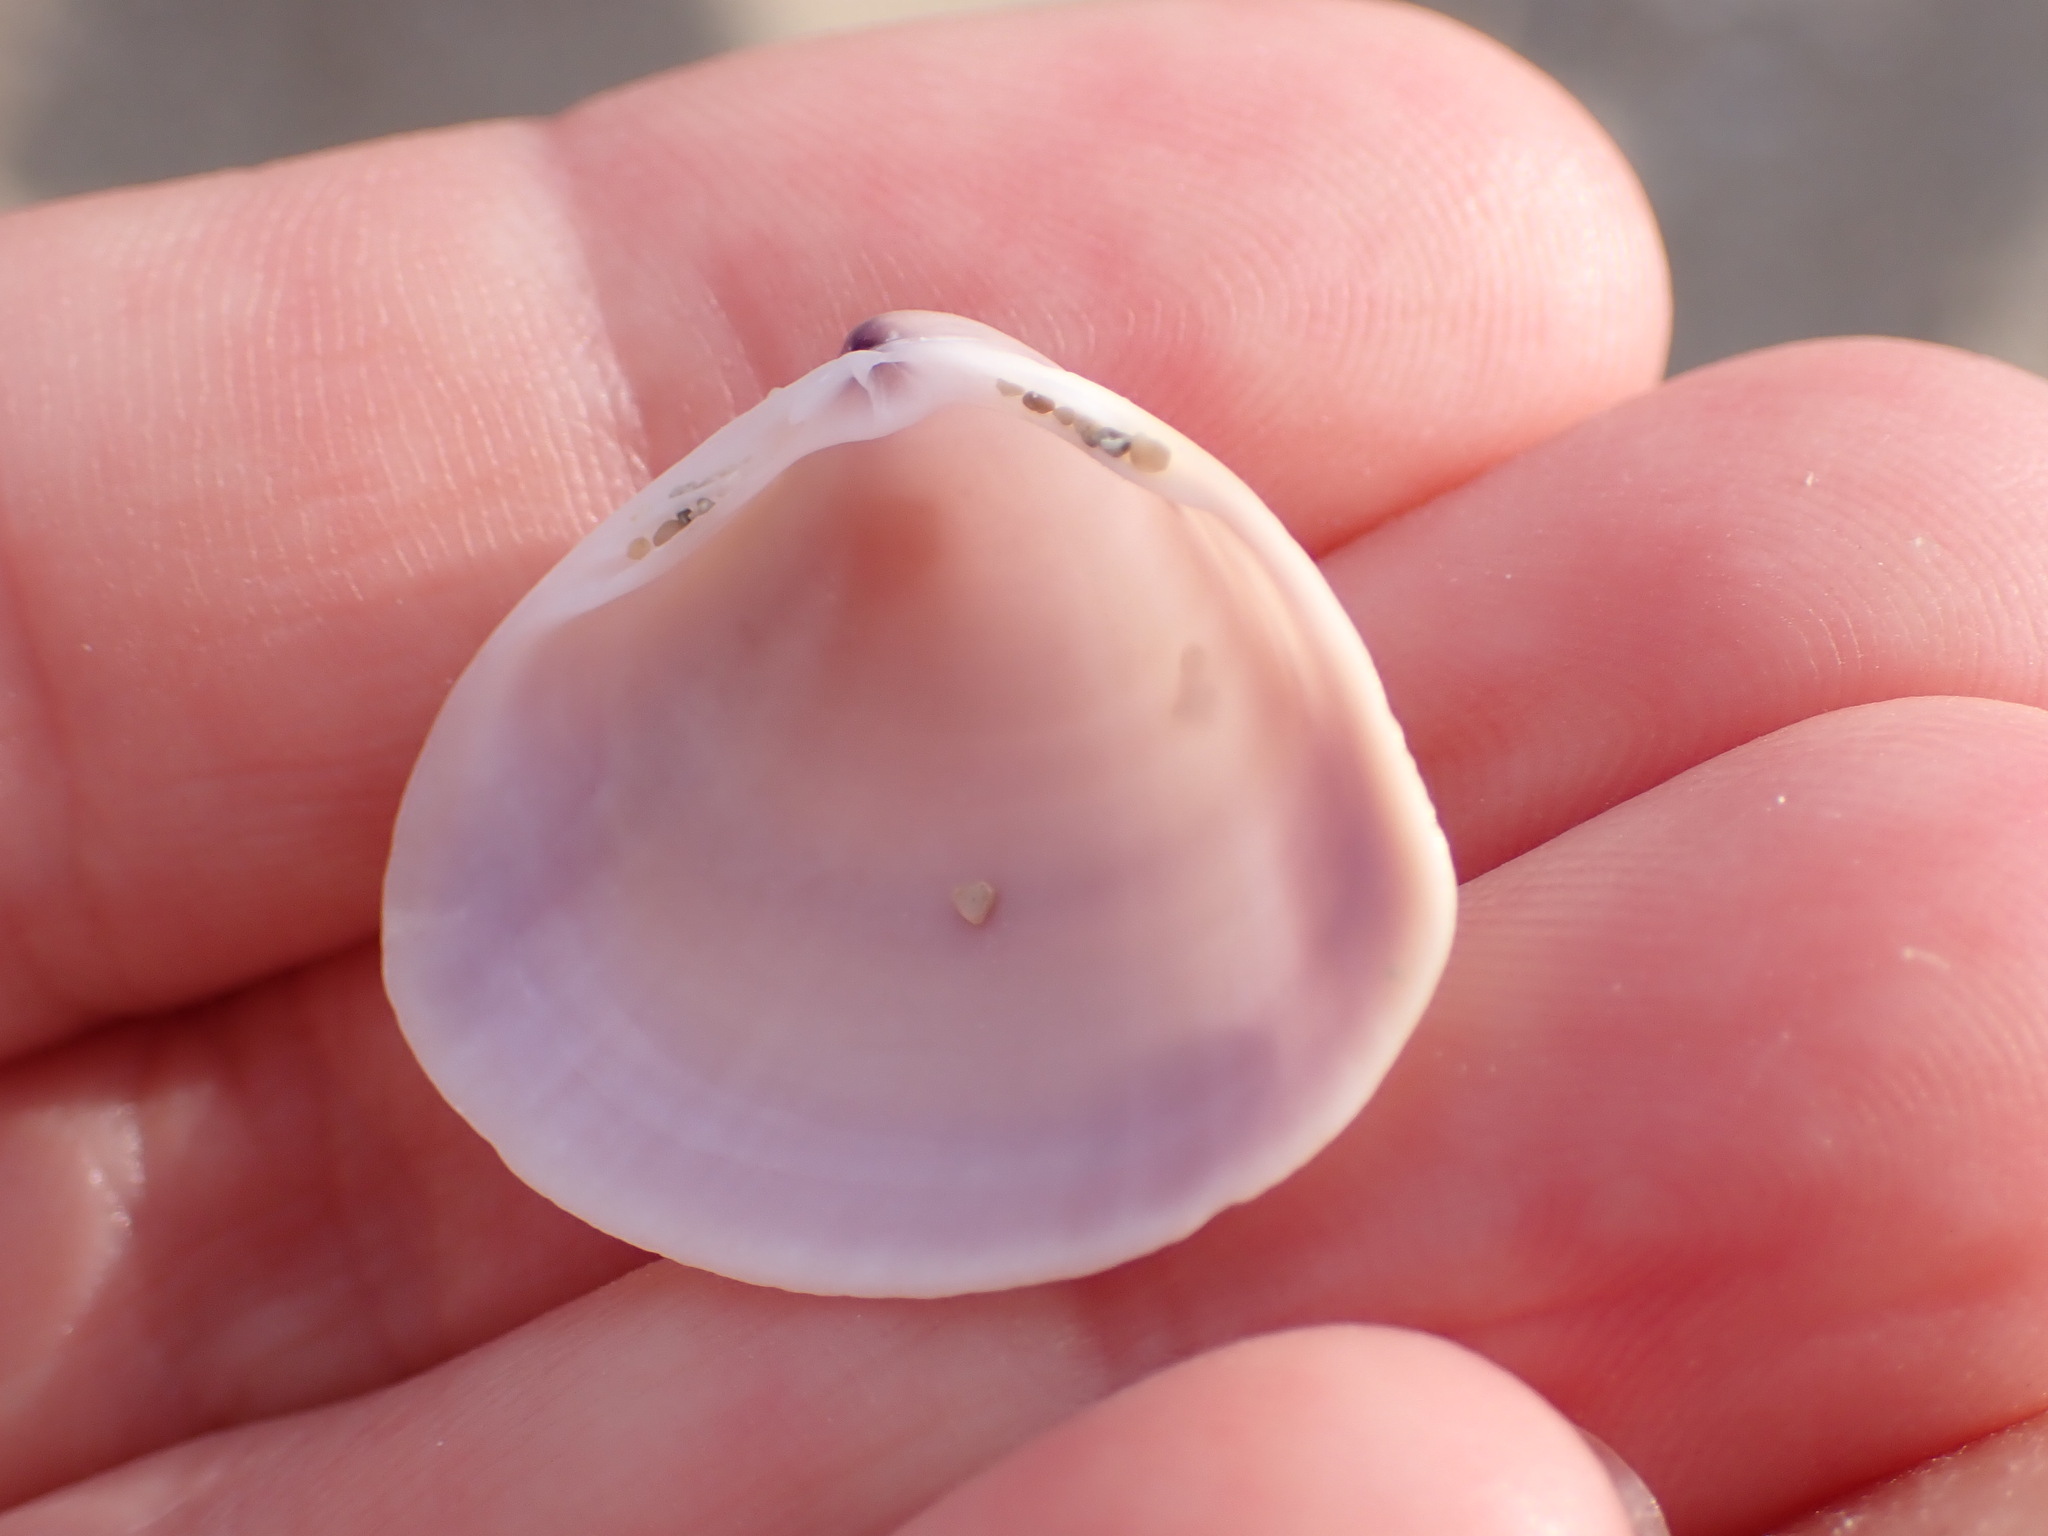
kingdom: Animalia
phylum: Mollusca
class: Bivalvia
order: Venerida
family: Mactridae
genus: Mactra
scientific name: Mactra stultorum
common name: Rayed trough shell
